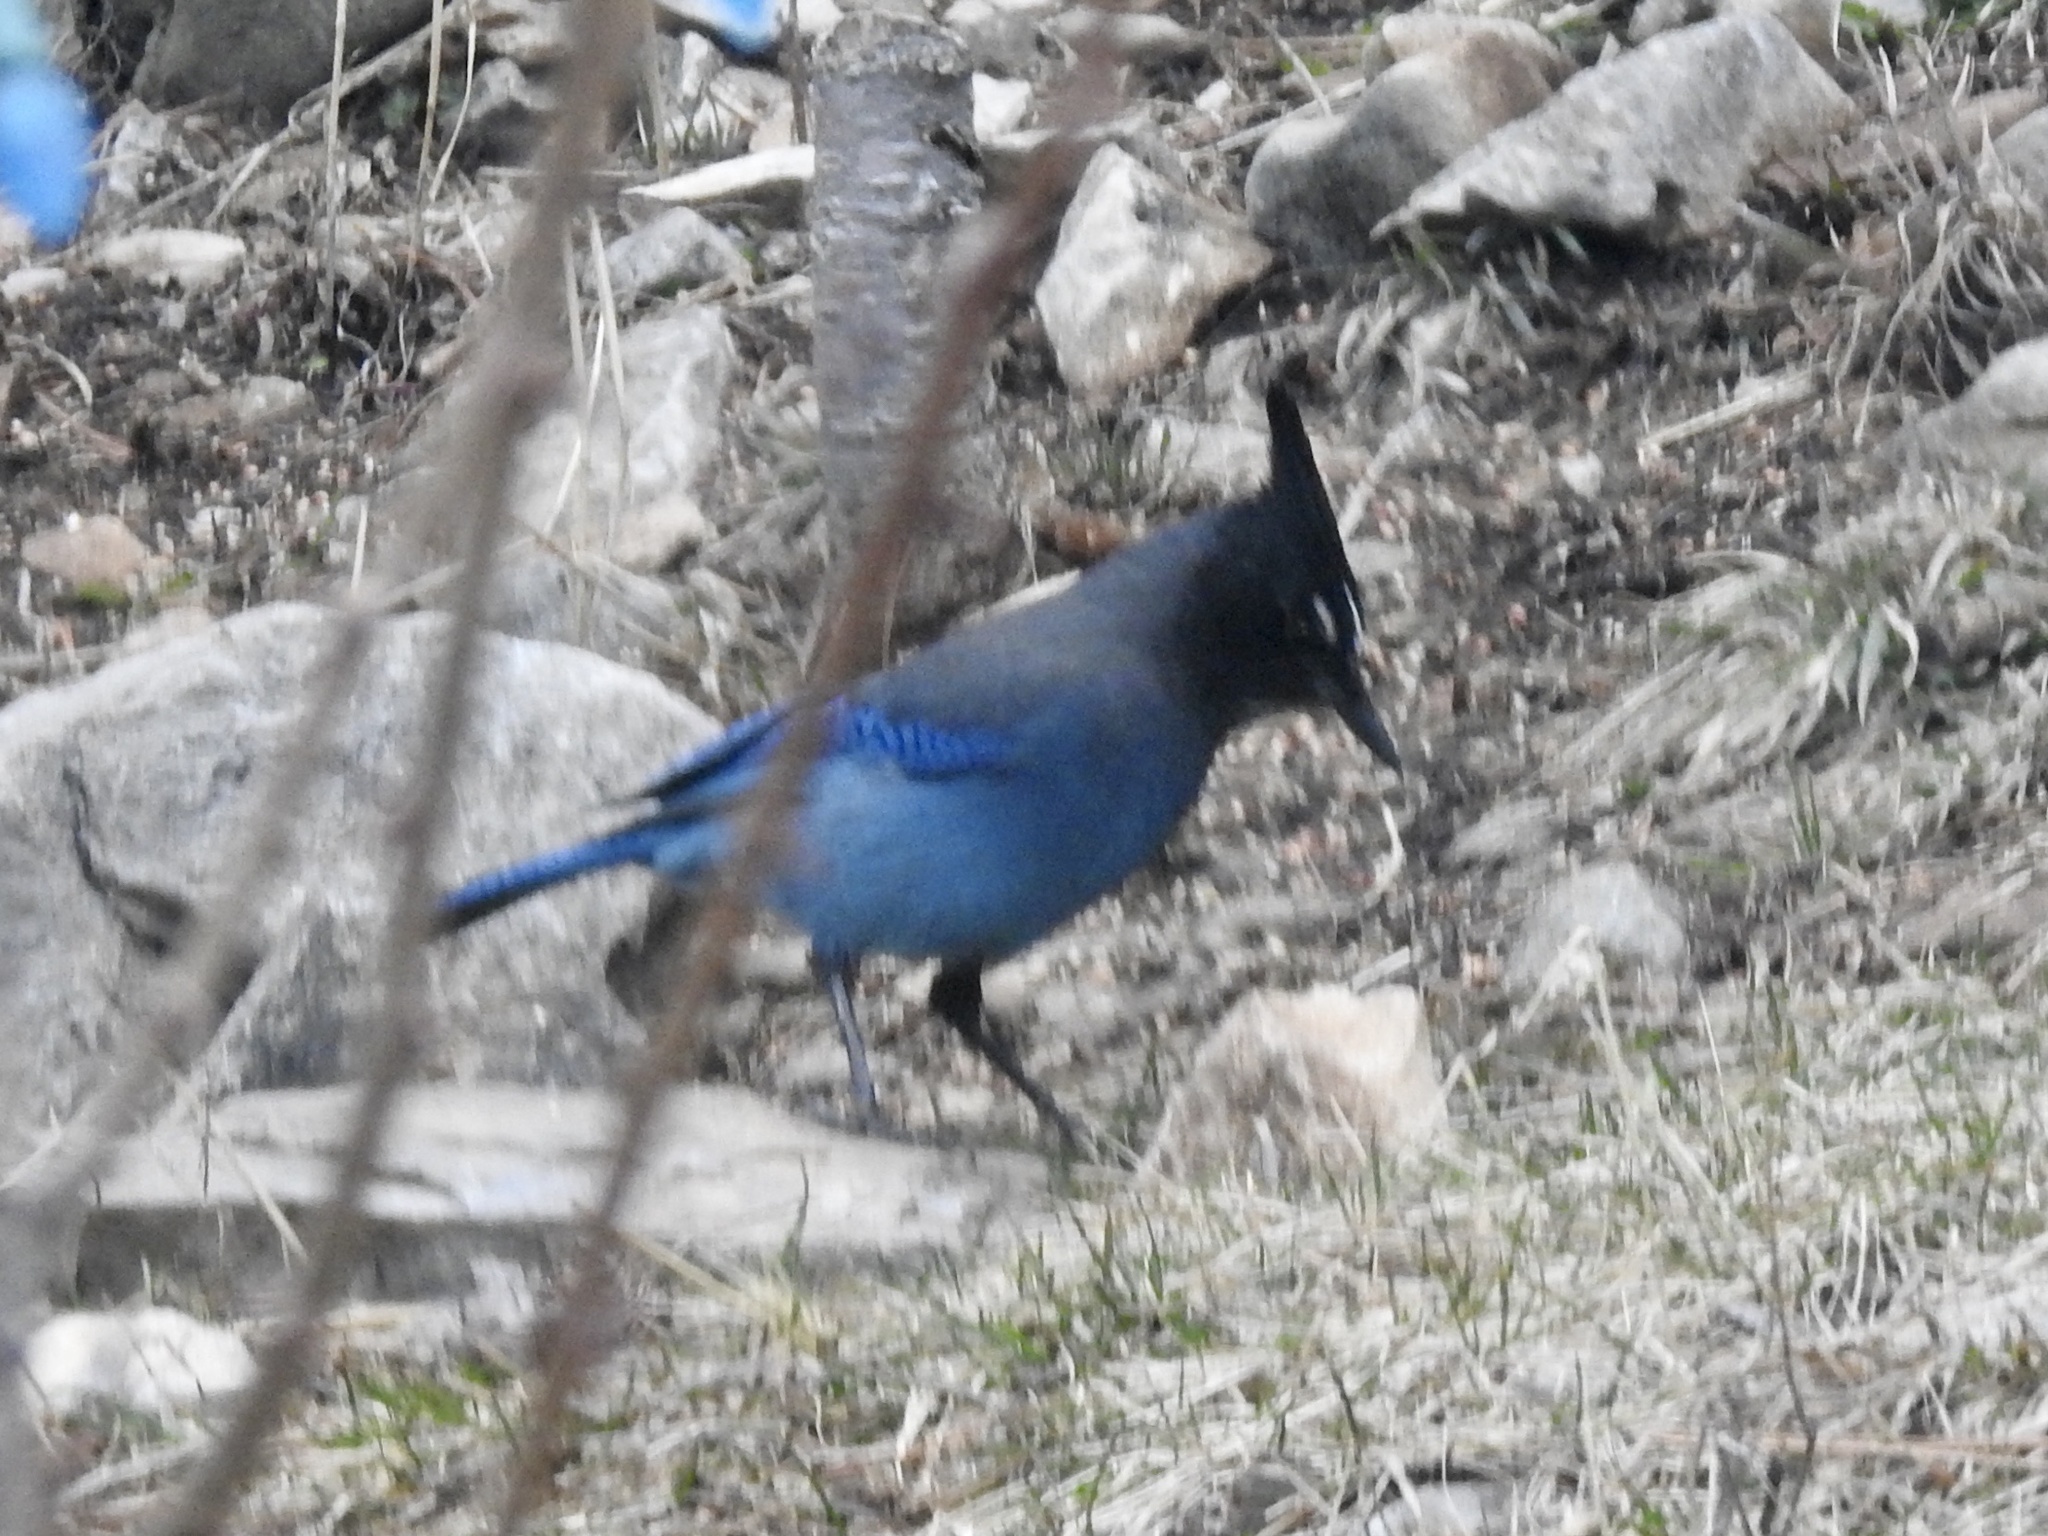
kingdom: Animalia
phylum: Chordata
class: Aves
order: Passeriformes
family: Corvidae
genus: Cyanocitta
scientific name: Cyanocitta stelleri
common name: Steller's jay
